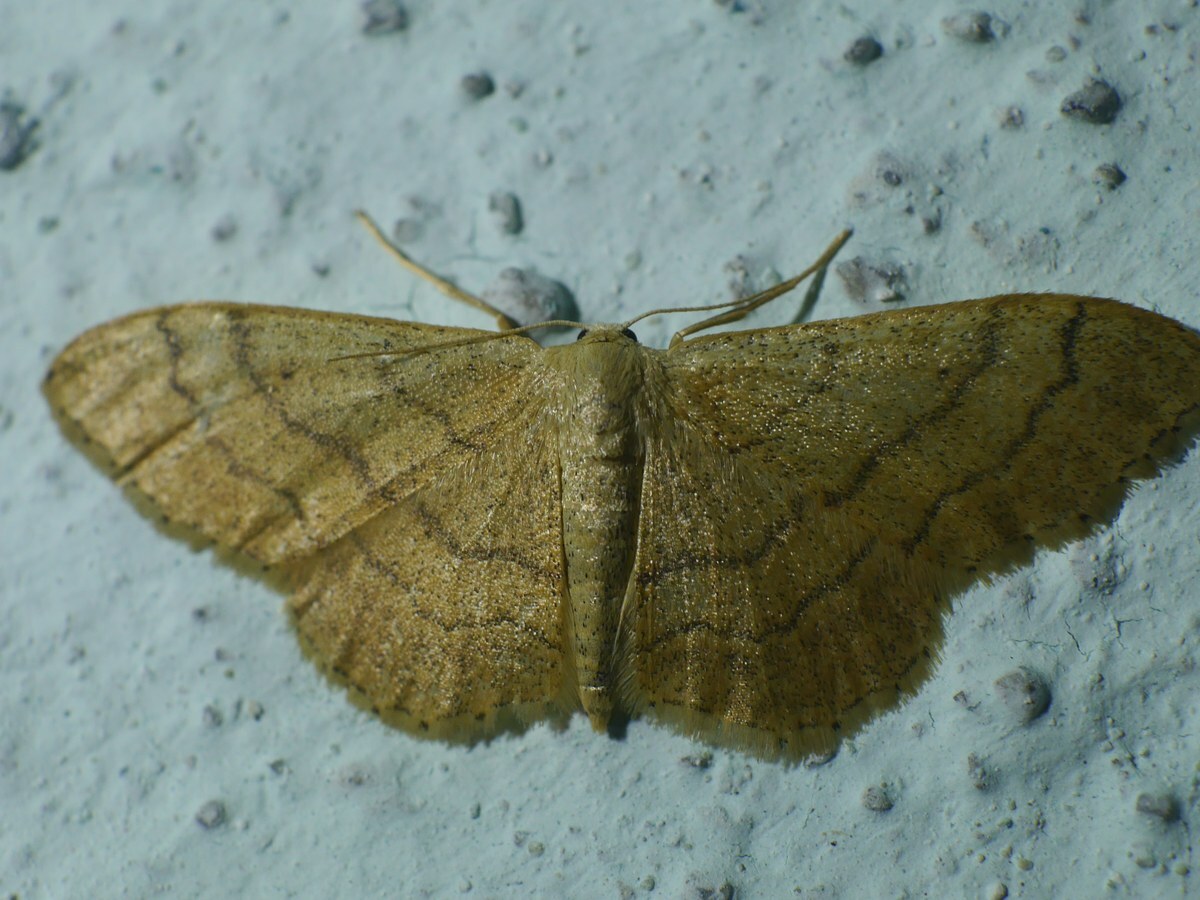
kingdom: Animalia
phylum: Arthropoda
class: Insecta
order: Lepidoptera
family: Geometridae
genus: Idaea
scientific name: Idaea aversata
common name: Riband wave
